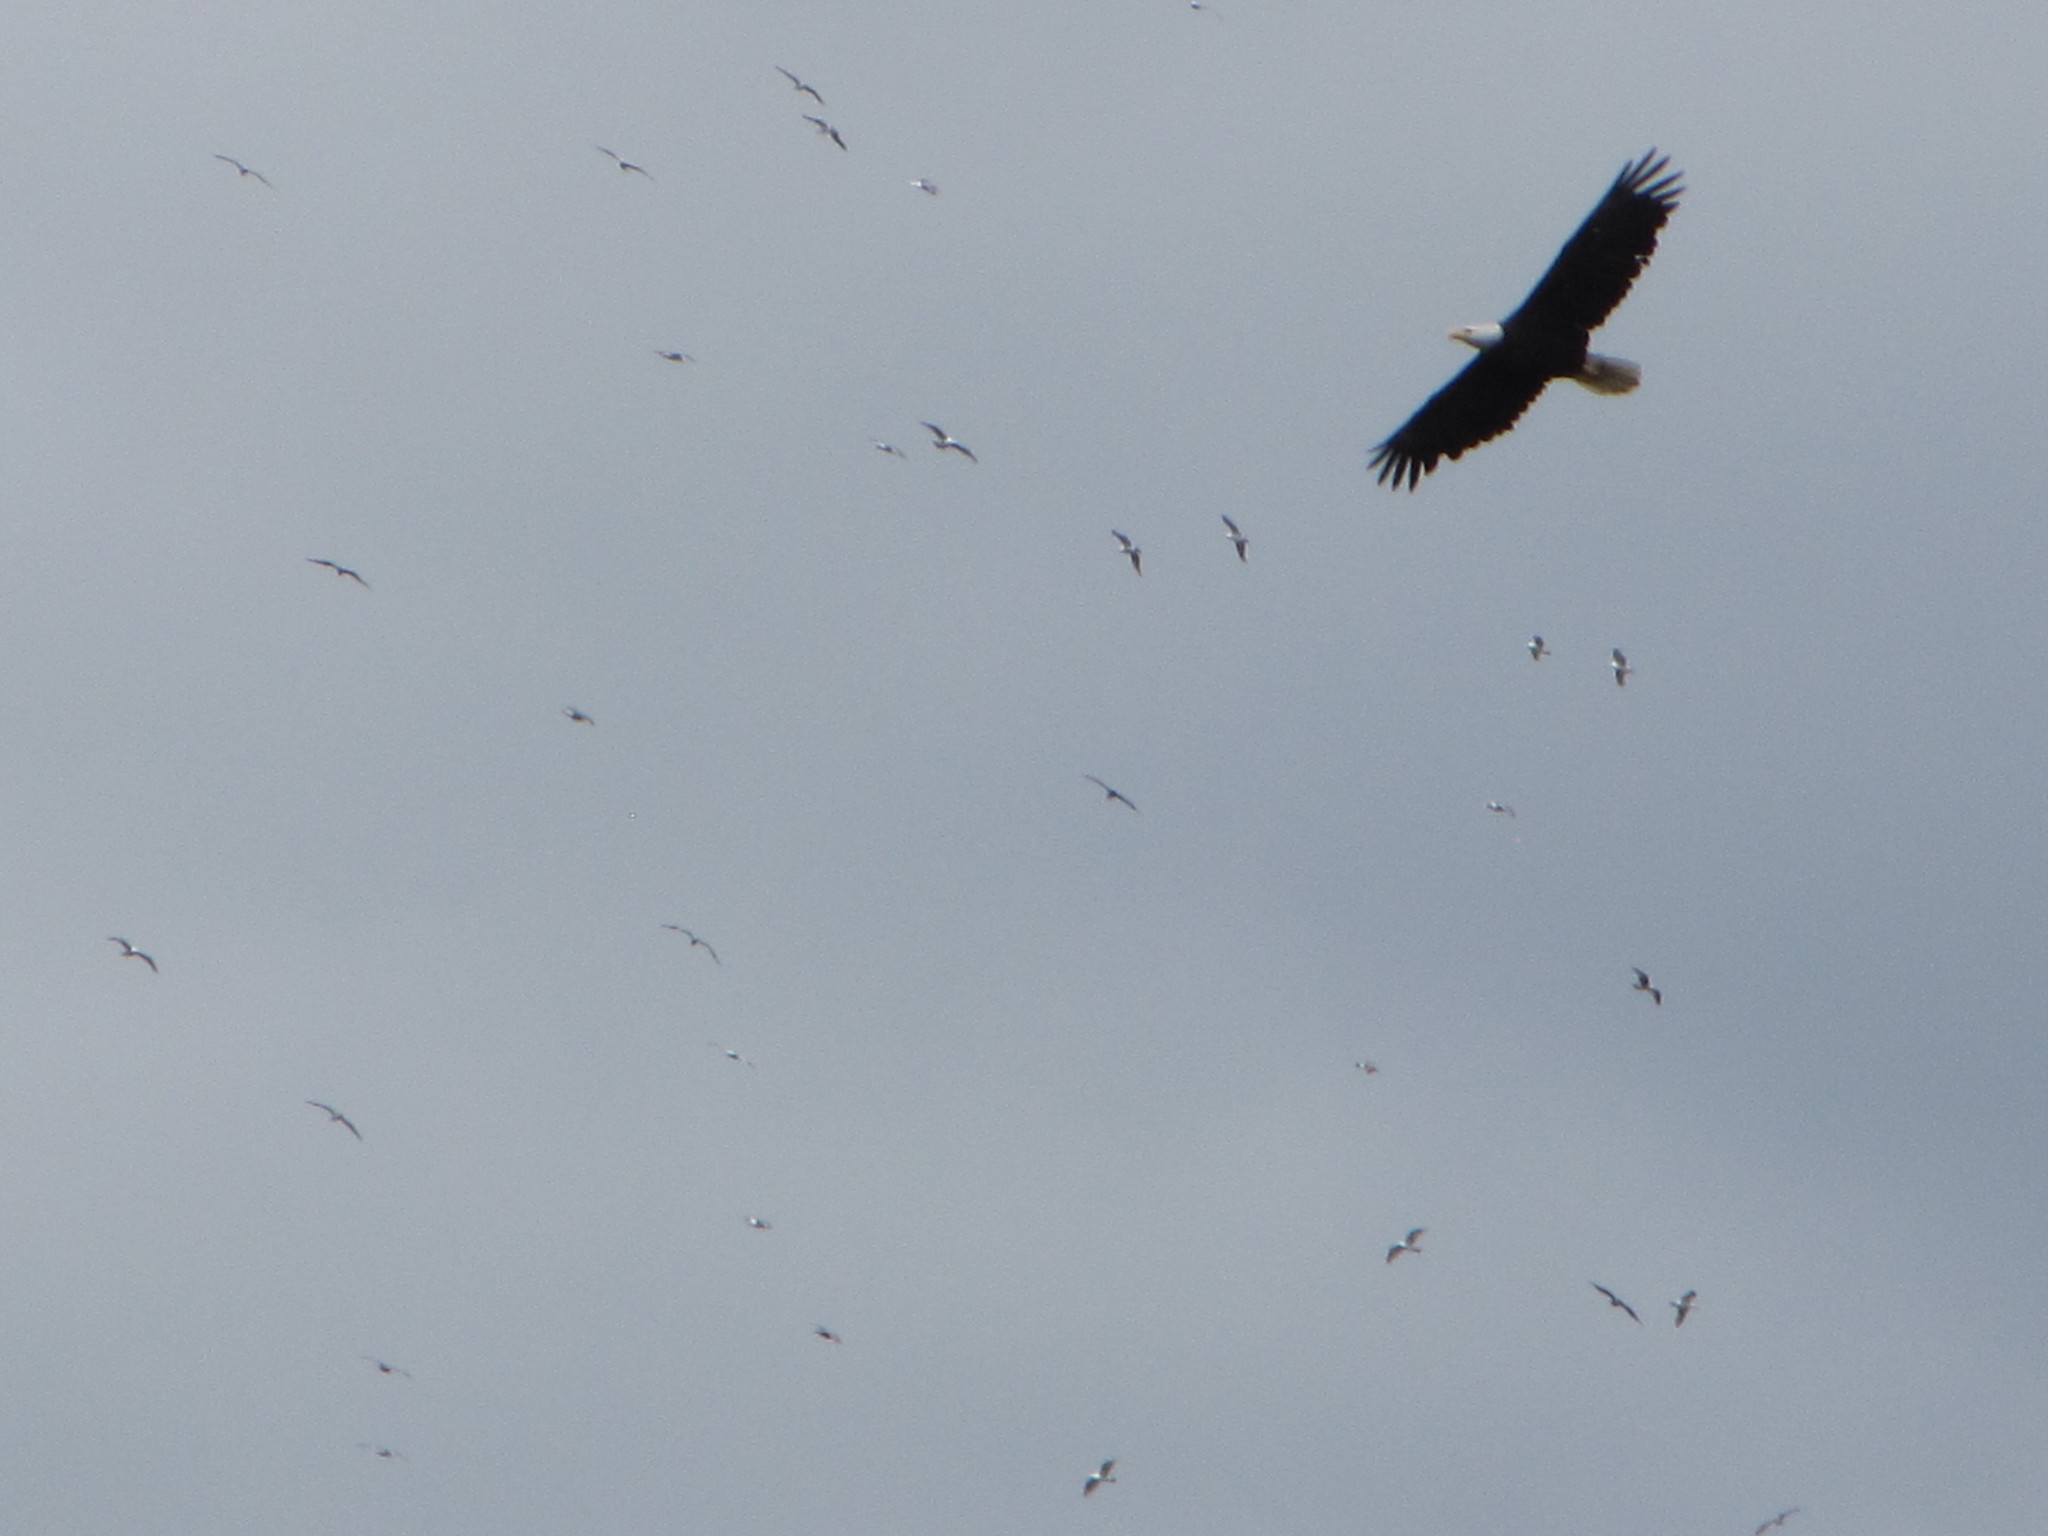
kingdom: Animalia
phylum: Chordata
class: Aves
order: Accipitriformes
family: Accipitridae
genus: Haliaeetus
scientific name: Haliaeetus leucocephalus
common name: Bald eagle
